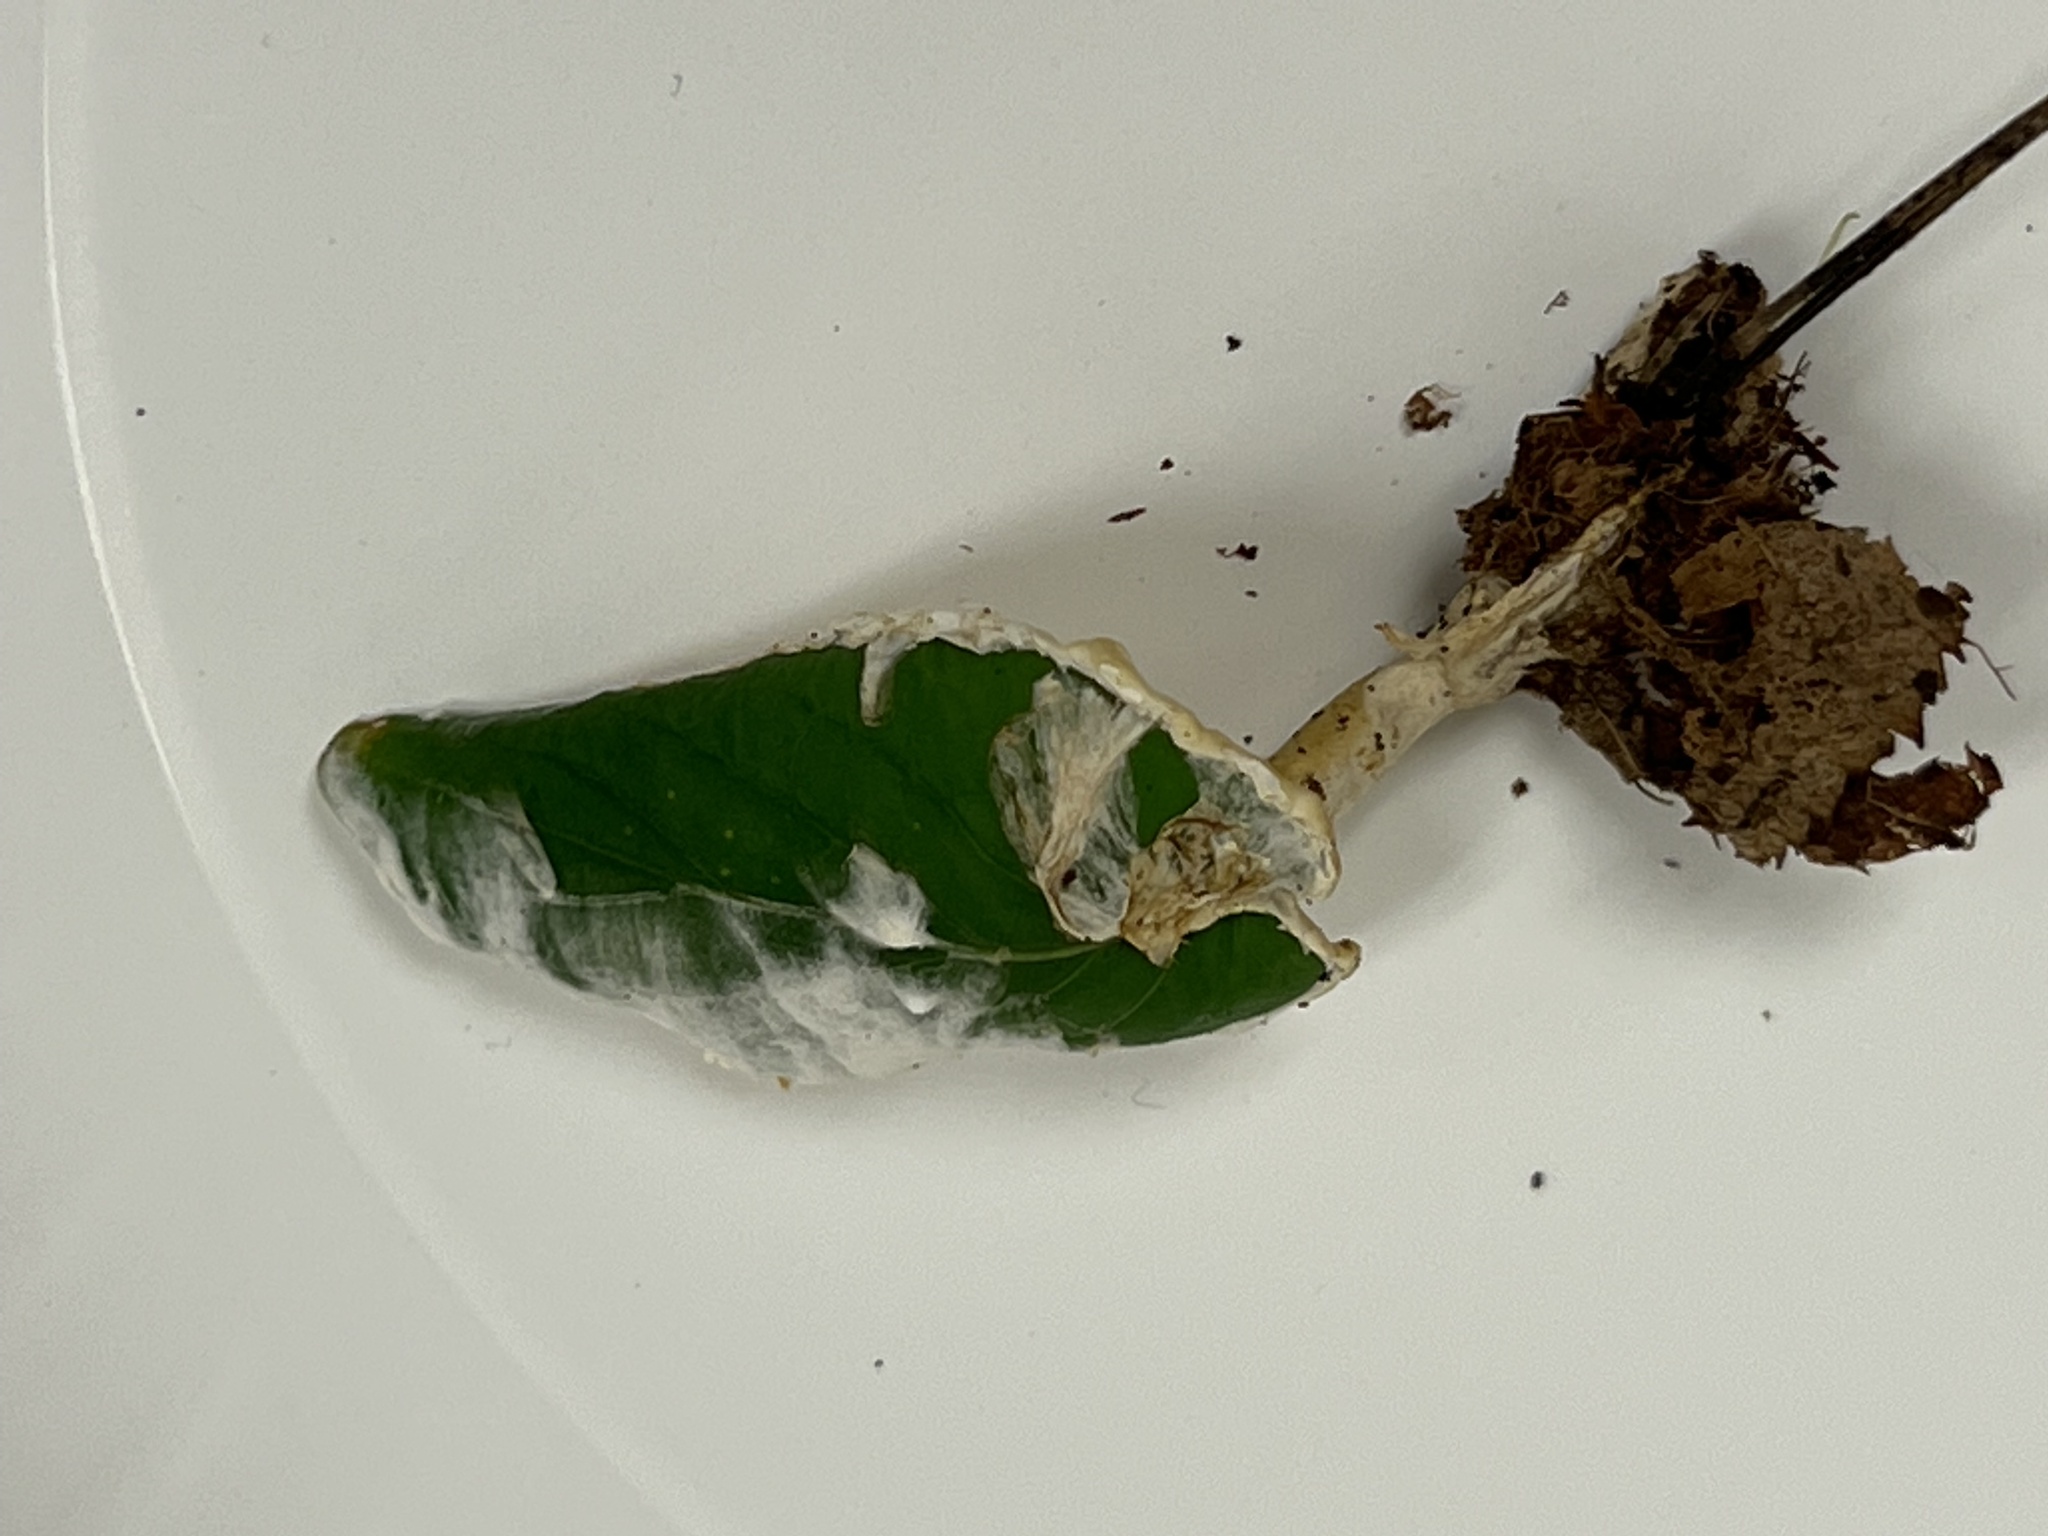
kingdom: Fungi
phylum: Basidiomycota
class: Agaricomycetes
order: Sebacinales
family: Sebacinaceae
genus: Sebacina
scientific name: Sebacina incrustans
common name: Enveloping crust
